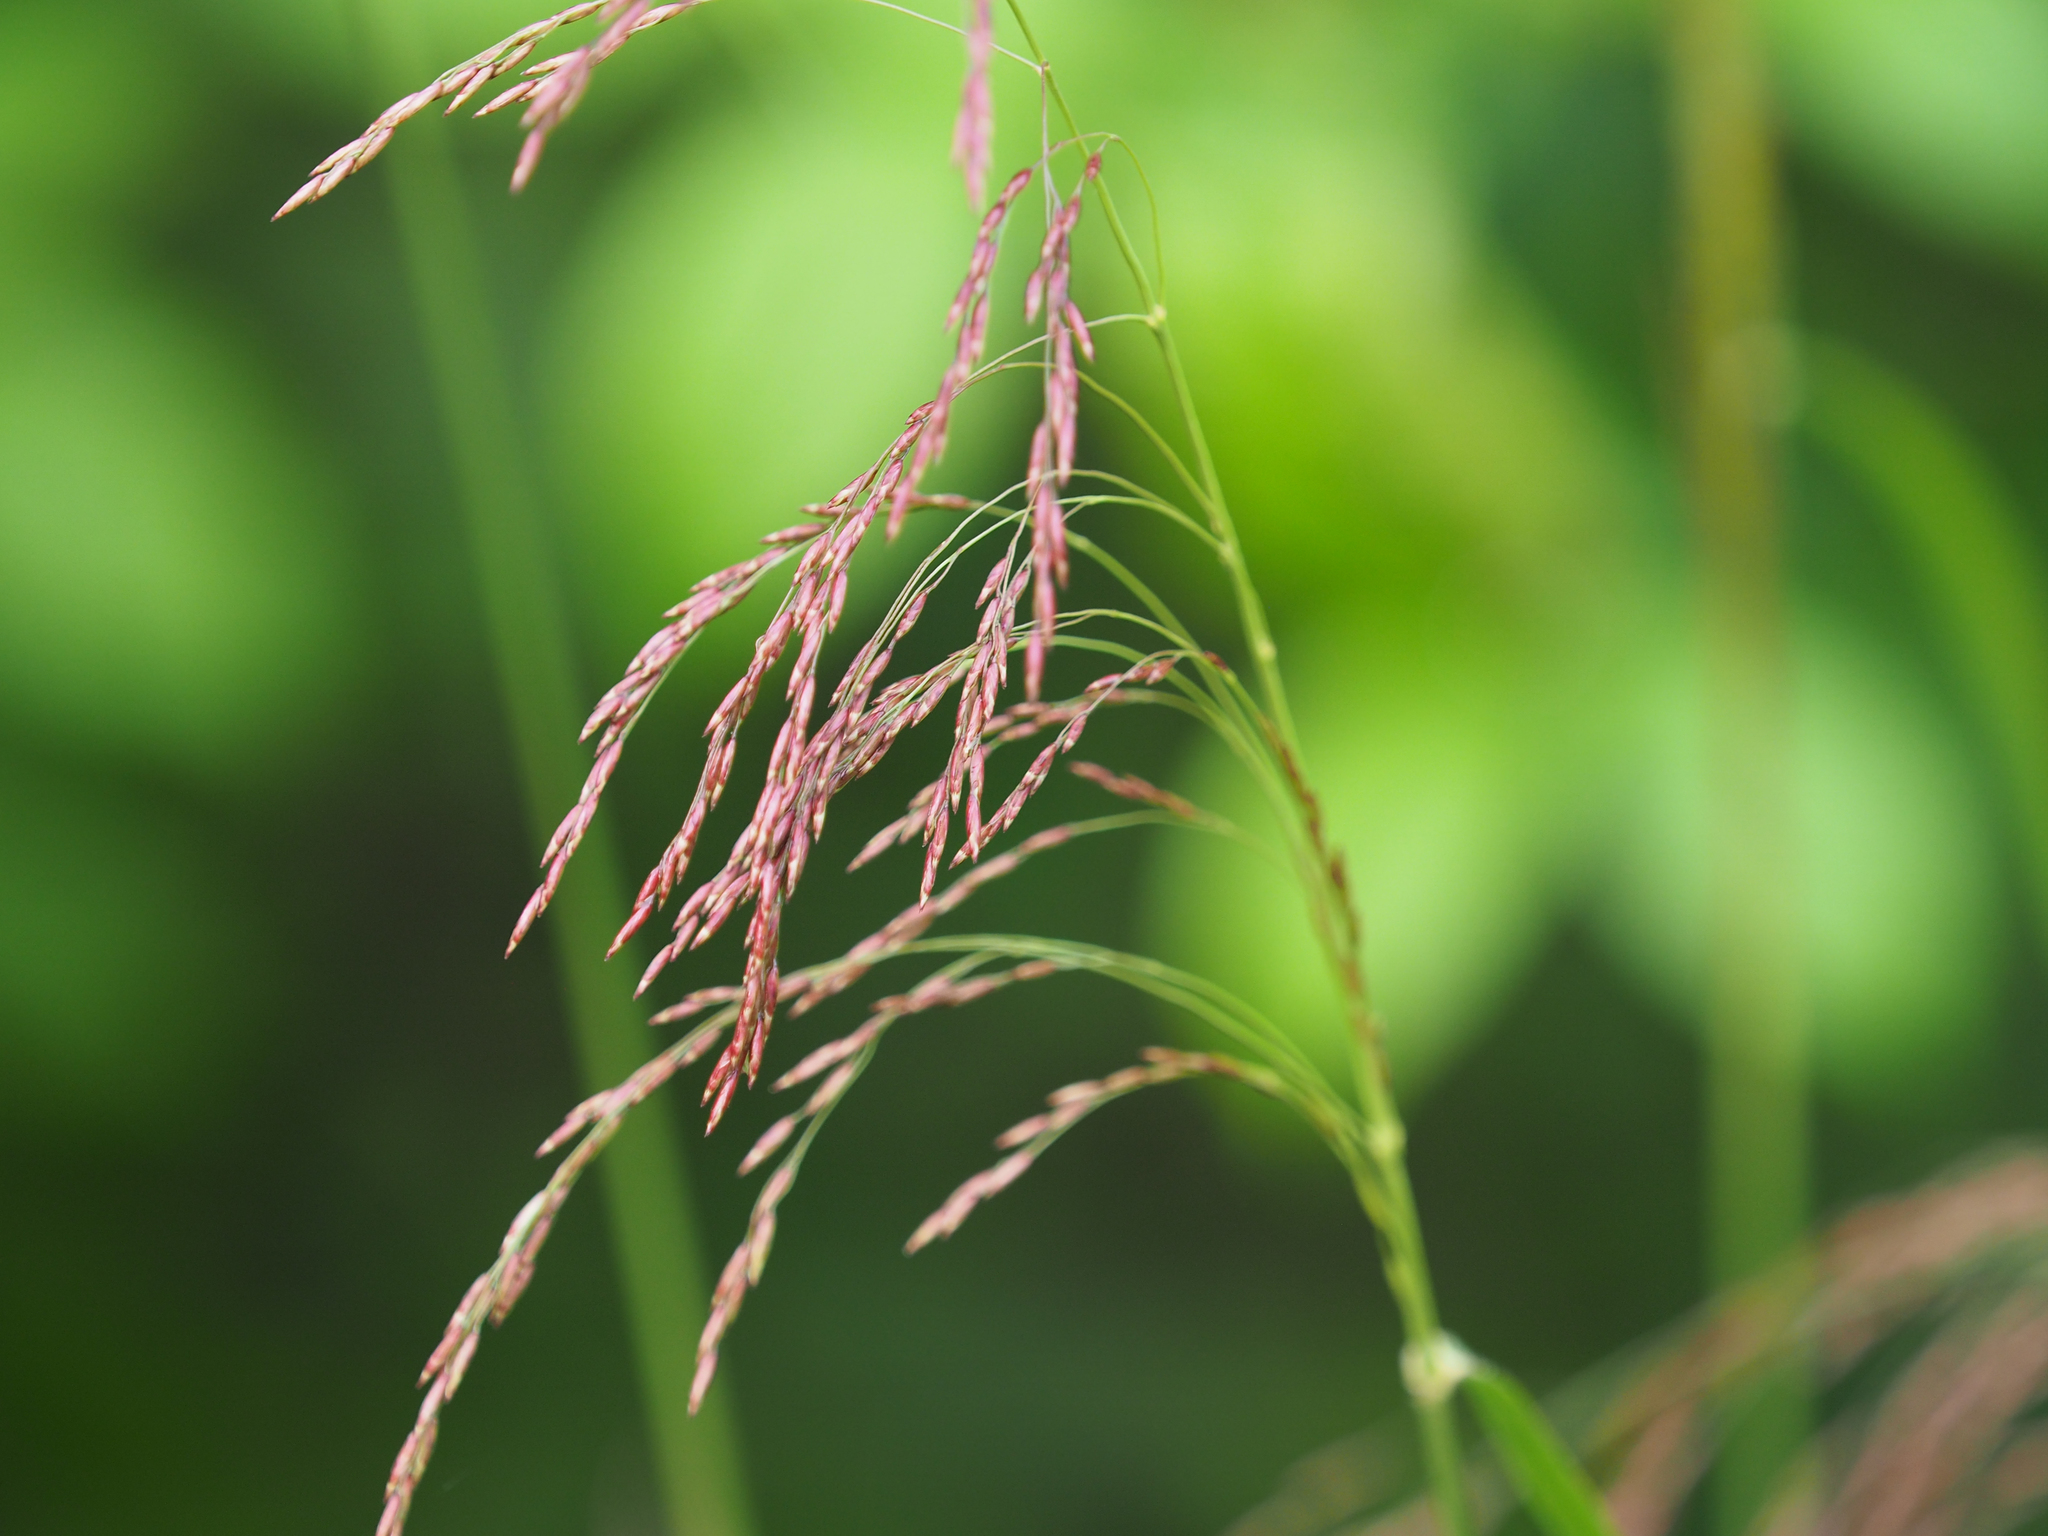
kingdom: Plantae
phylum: Tracheophyta
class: Liliopsida
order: Poales
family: Poaceae
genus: Tridens
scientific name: Tridens flavus
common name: Purpletop
